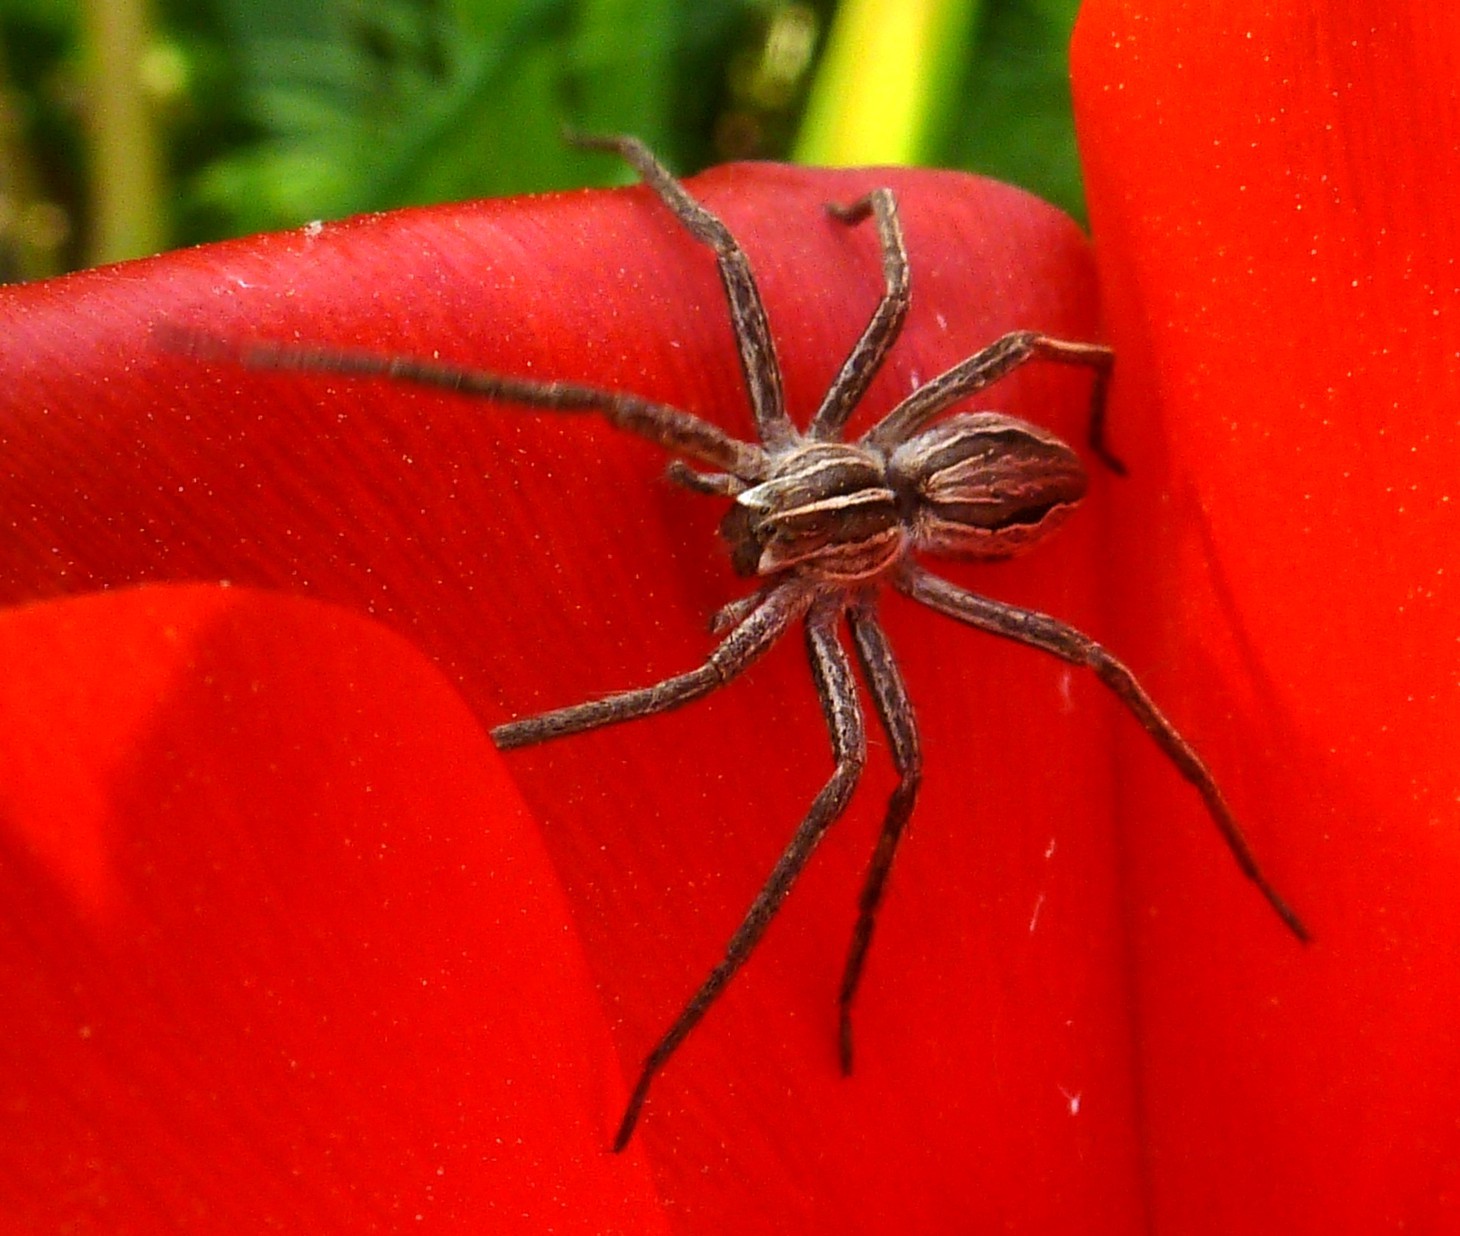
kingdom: Animalia
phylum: Arthropoda
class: Arachnida
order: Araneae
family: Pisauridae
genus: Pisaura
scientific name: Pisaura
